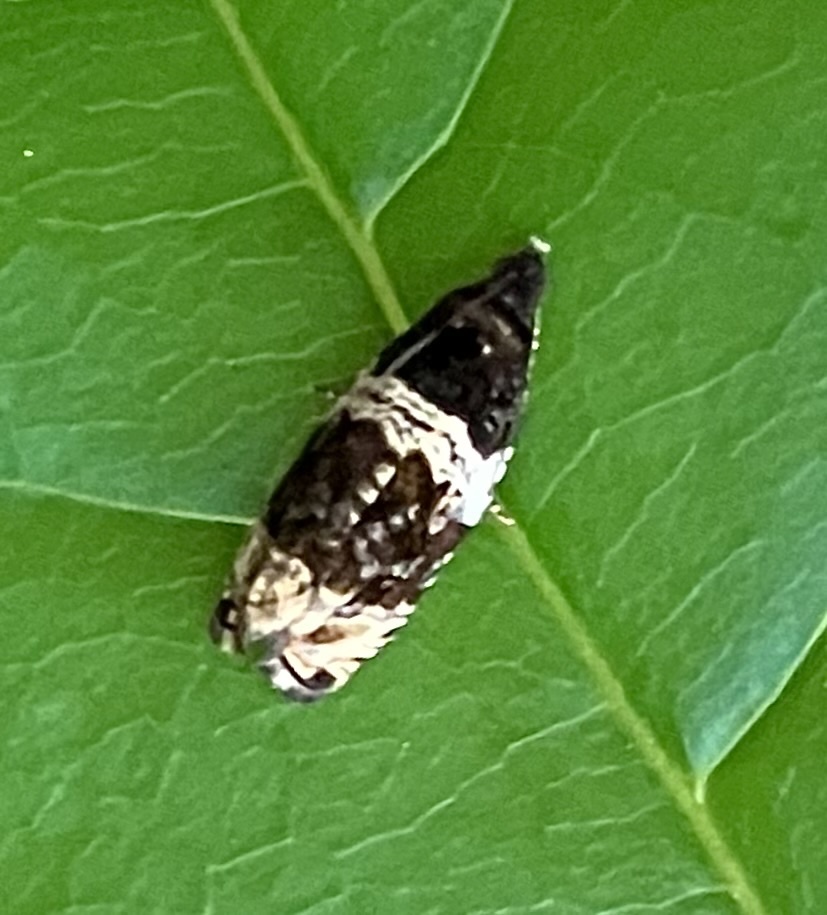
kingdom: Animalia
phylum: Arthropoda
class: Insecta
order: Lepidoptera
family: Tortricidae
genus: Olethreutes
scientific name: Olethreutes fasciatana
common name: Banded olethreutes moth
